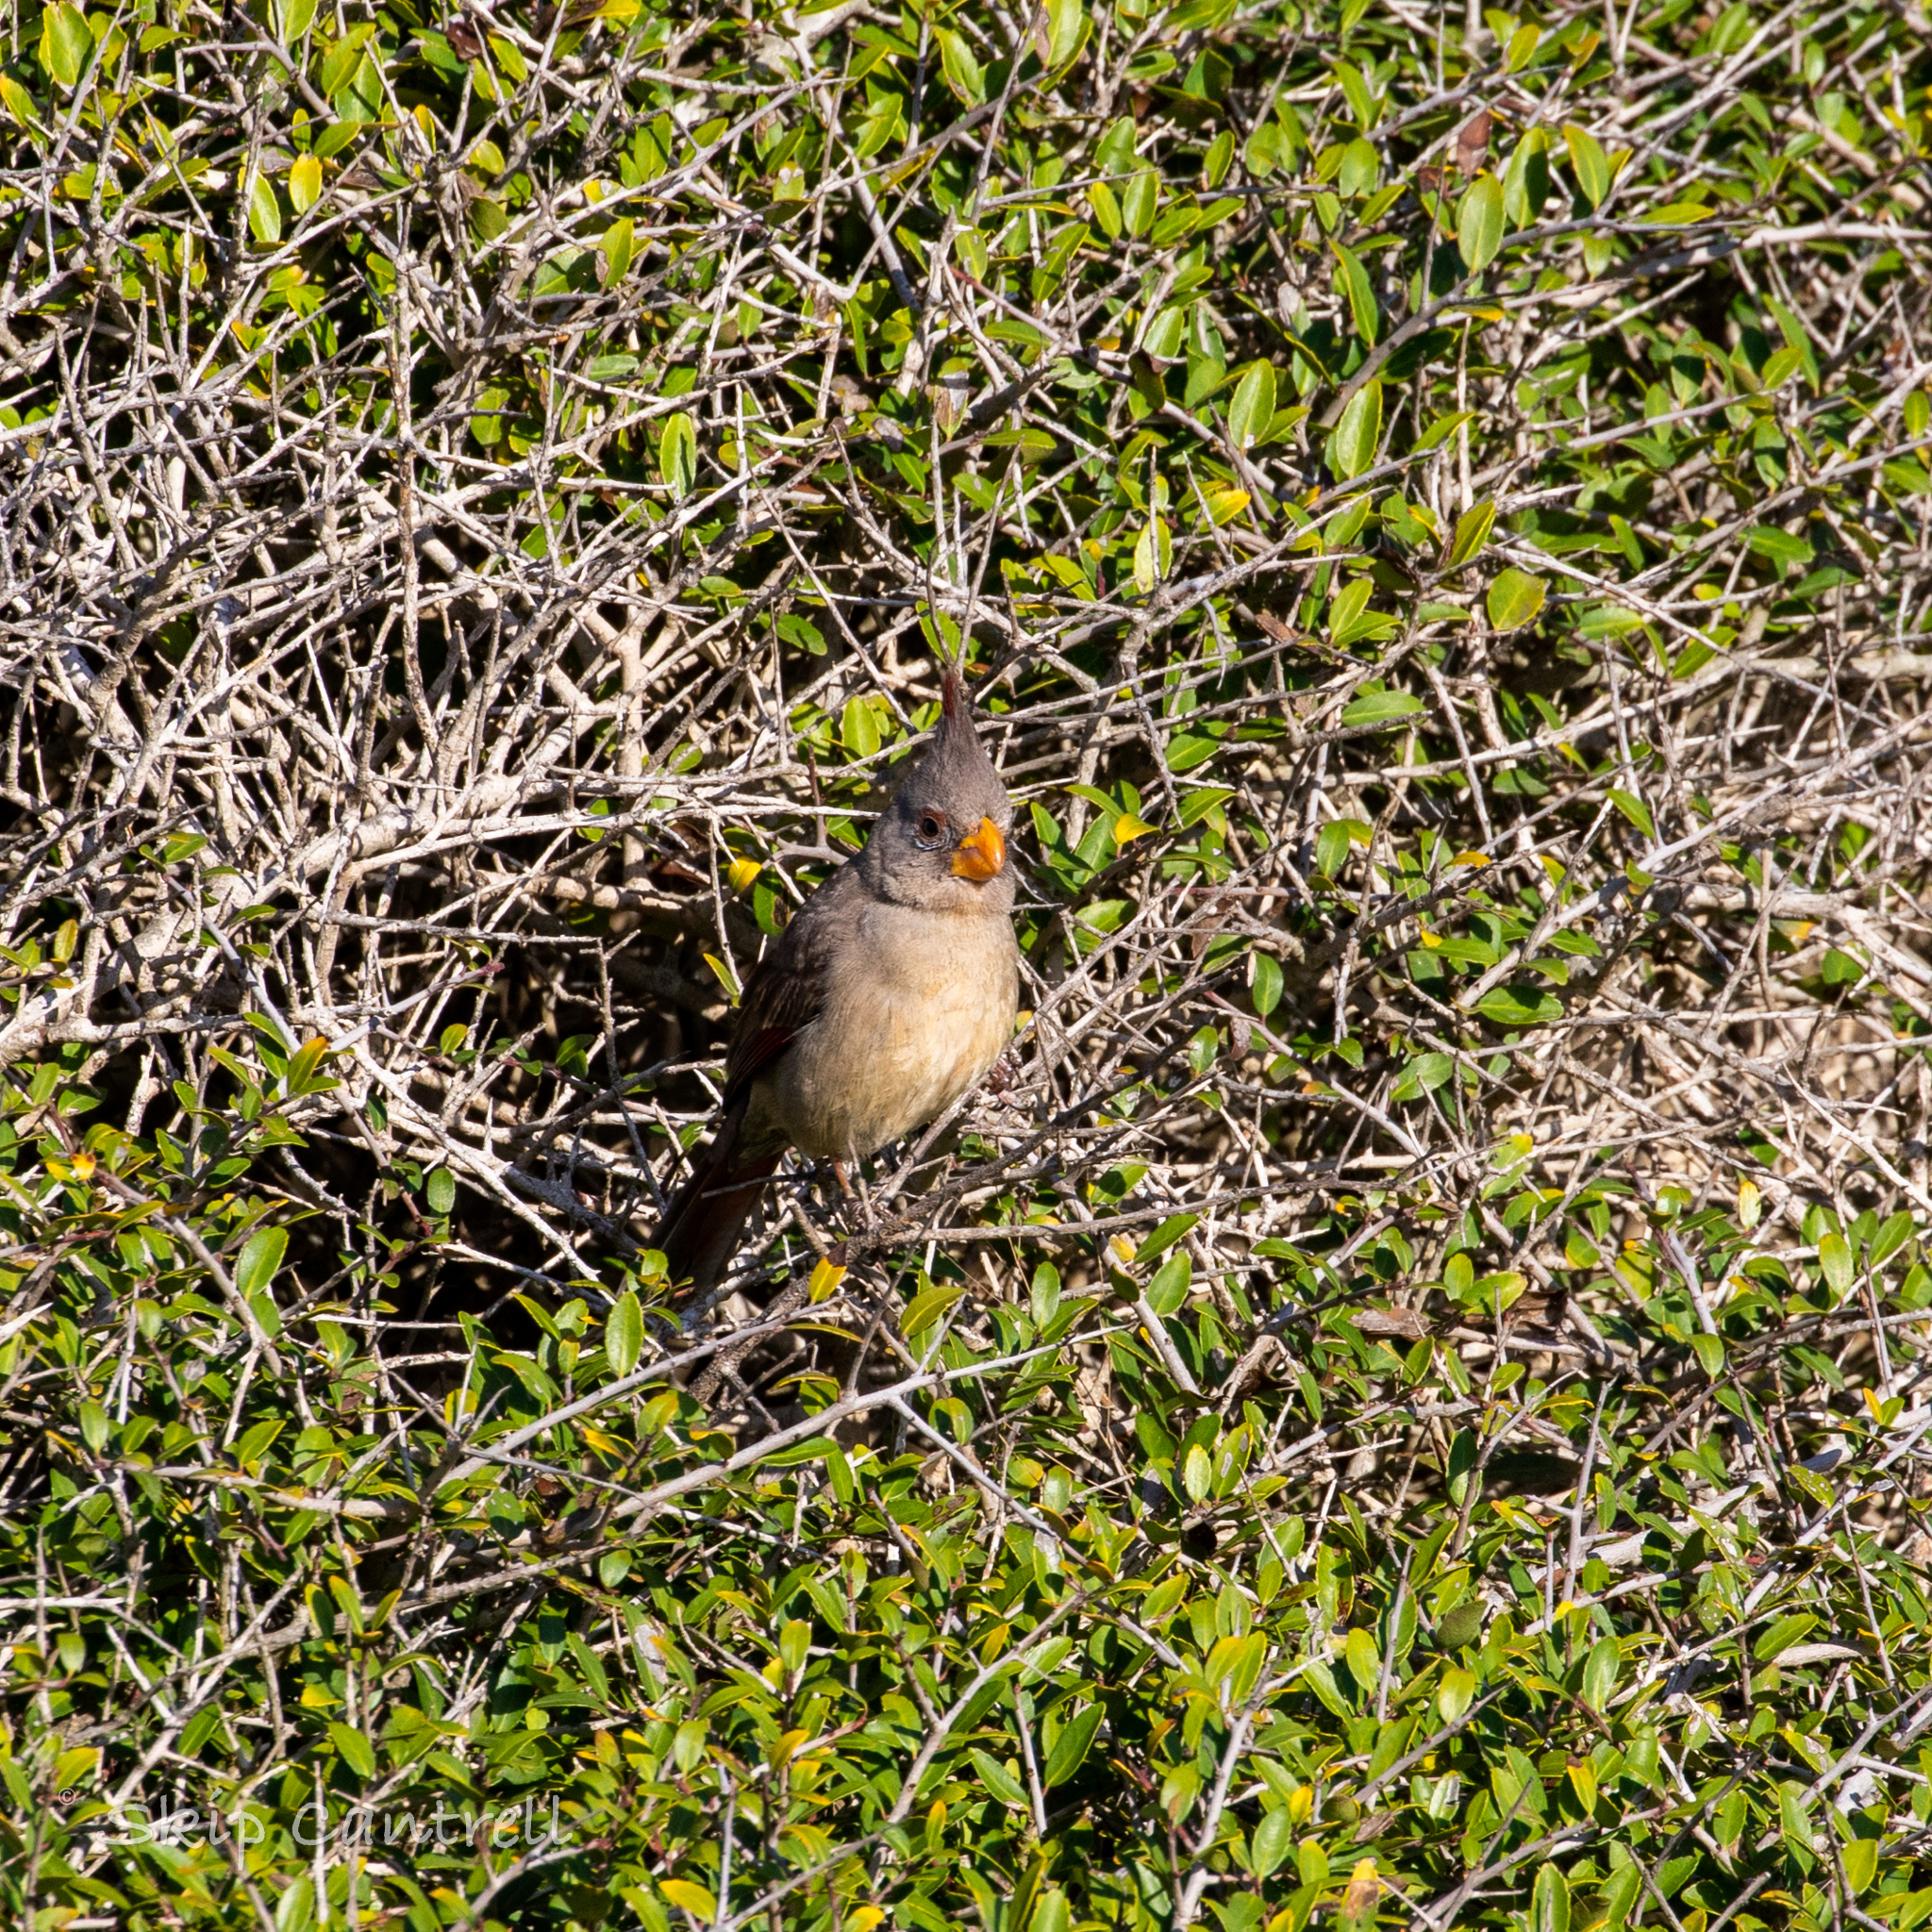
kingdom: Animalia
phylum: Chordata
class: Aves
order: Passeriformes
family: Cardinalidae
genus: Cardinalis
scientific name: Cardinalis sinuatus
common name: Pyrrhuloxia
